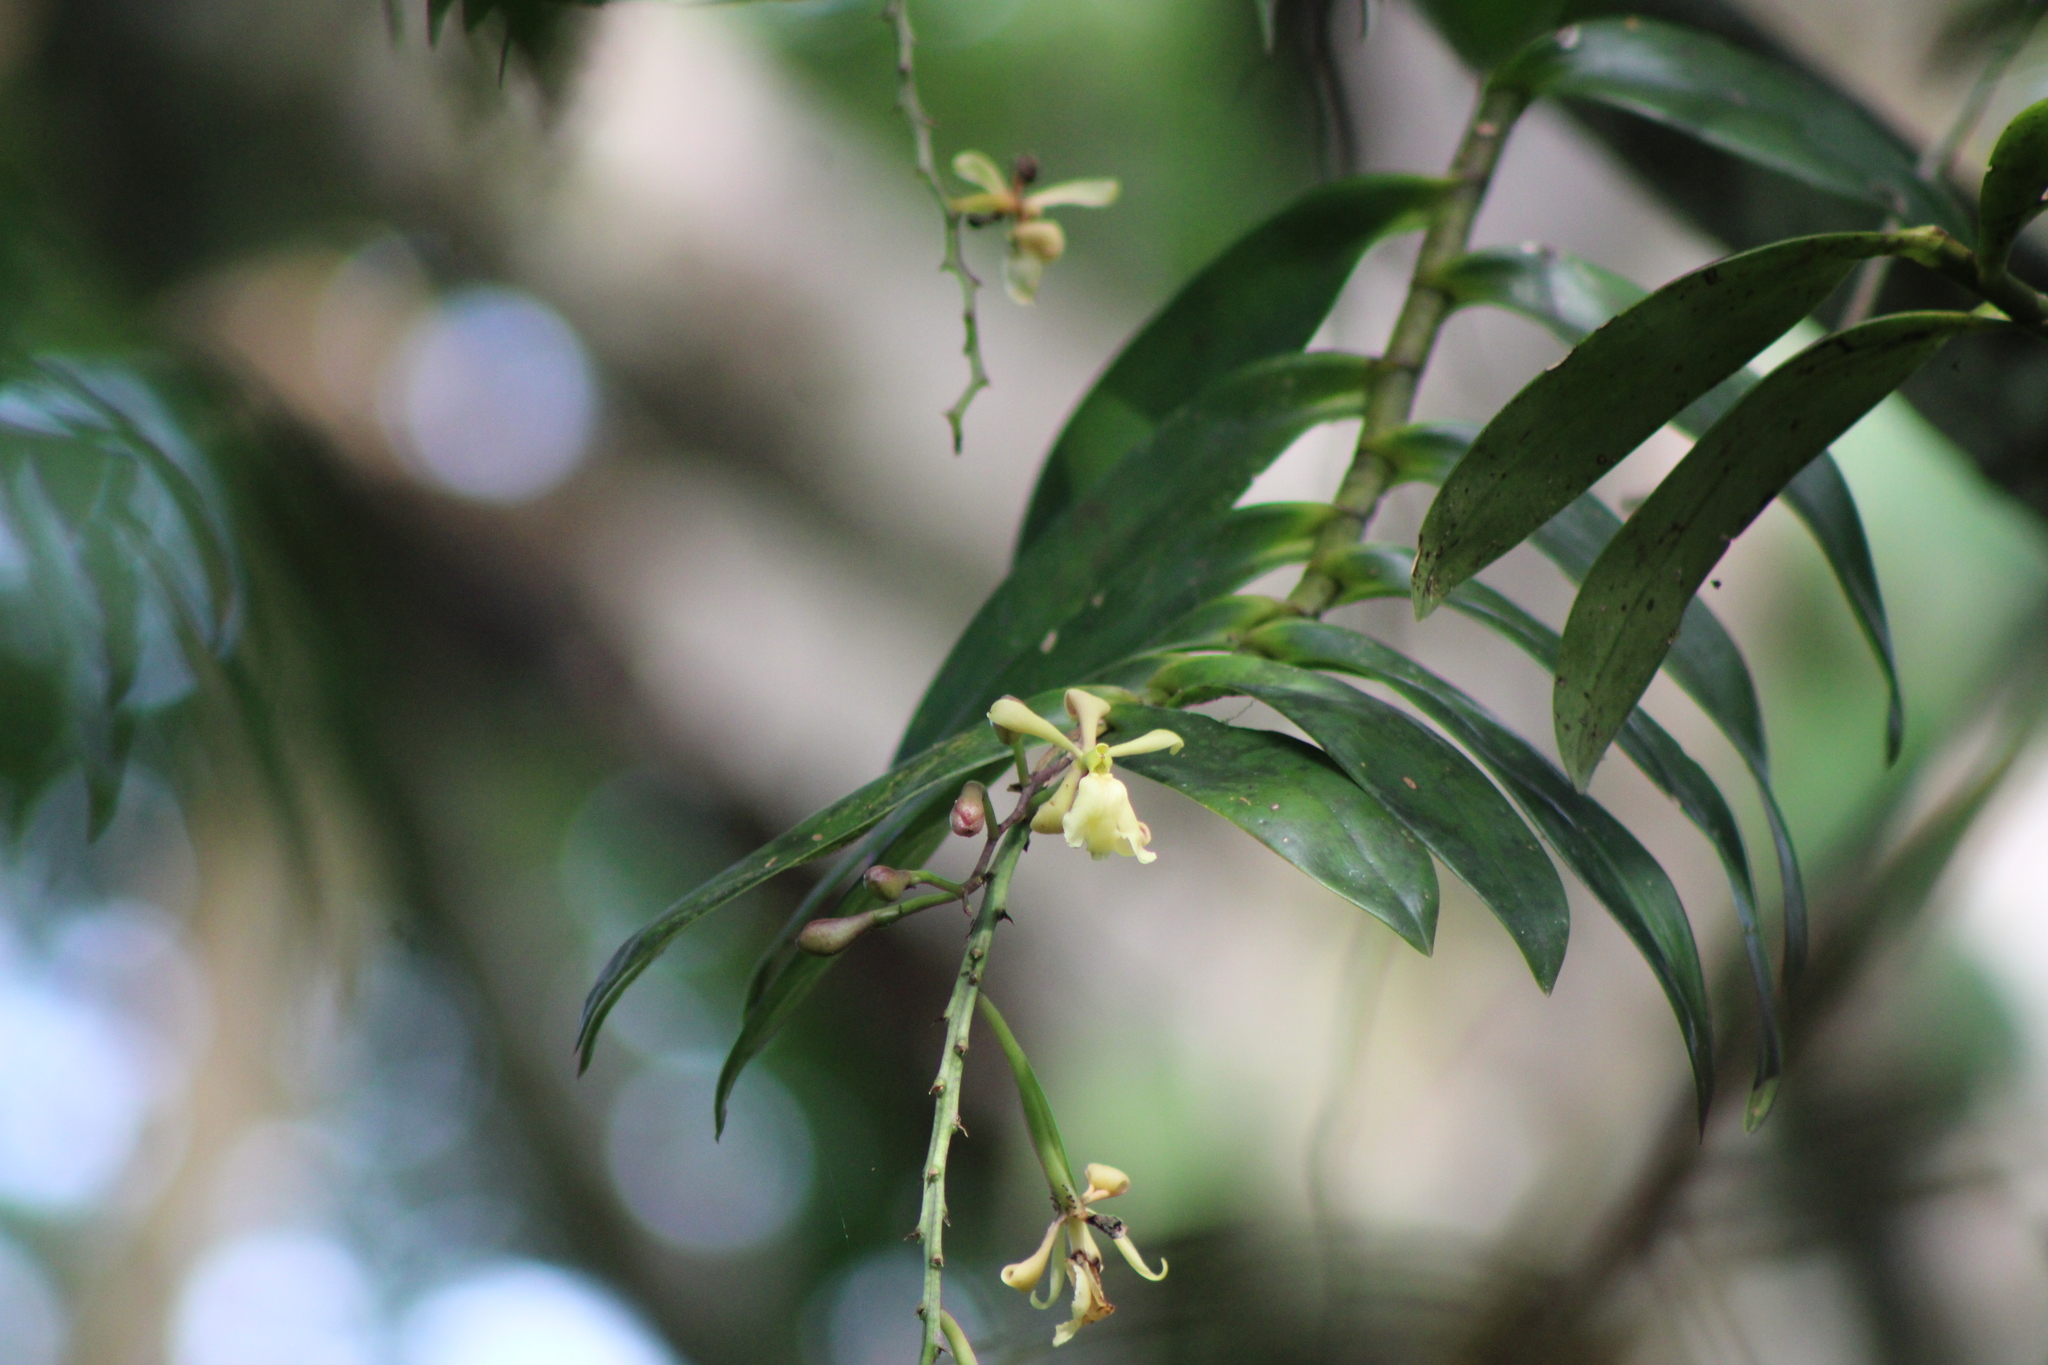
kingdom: Plantae
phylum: Tracheophyta
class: Liliopsida
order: Asparagales
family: Orchidaceae
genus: Epidendrum
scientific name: Epidendrum coronatum
